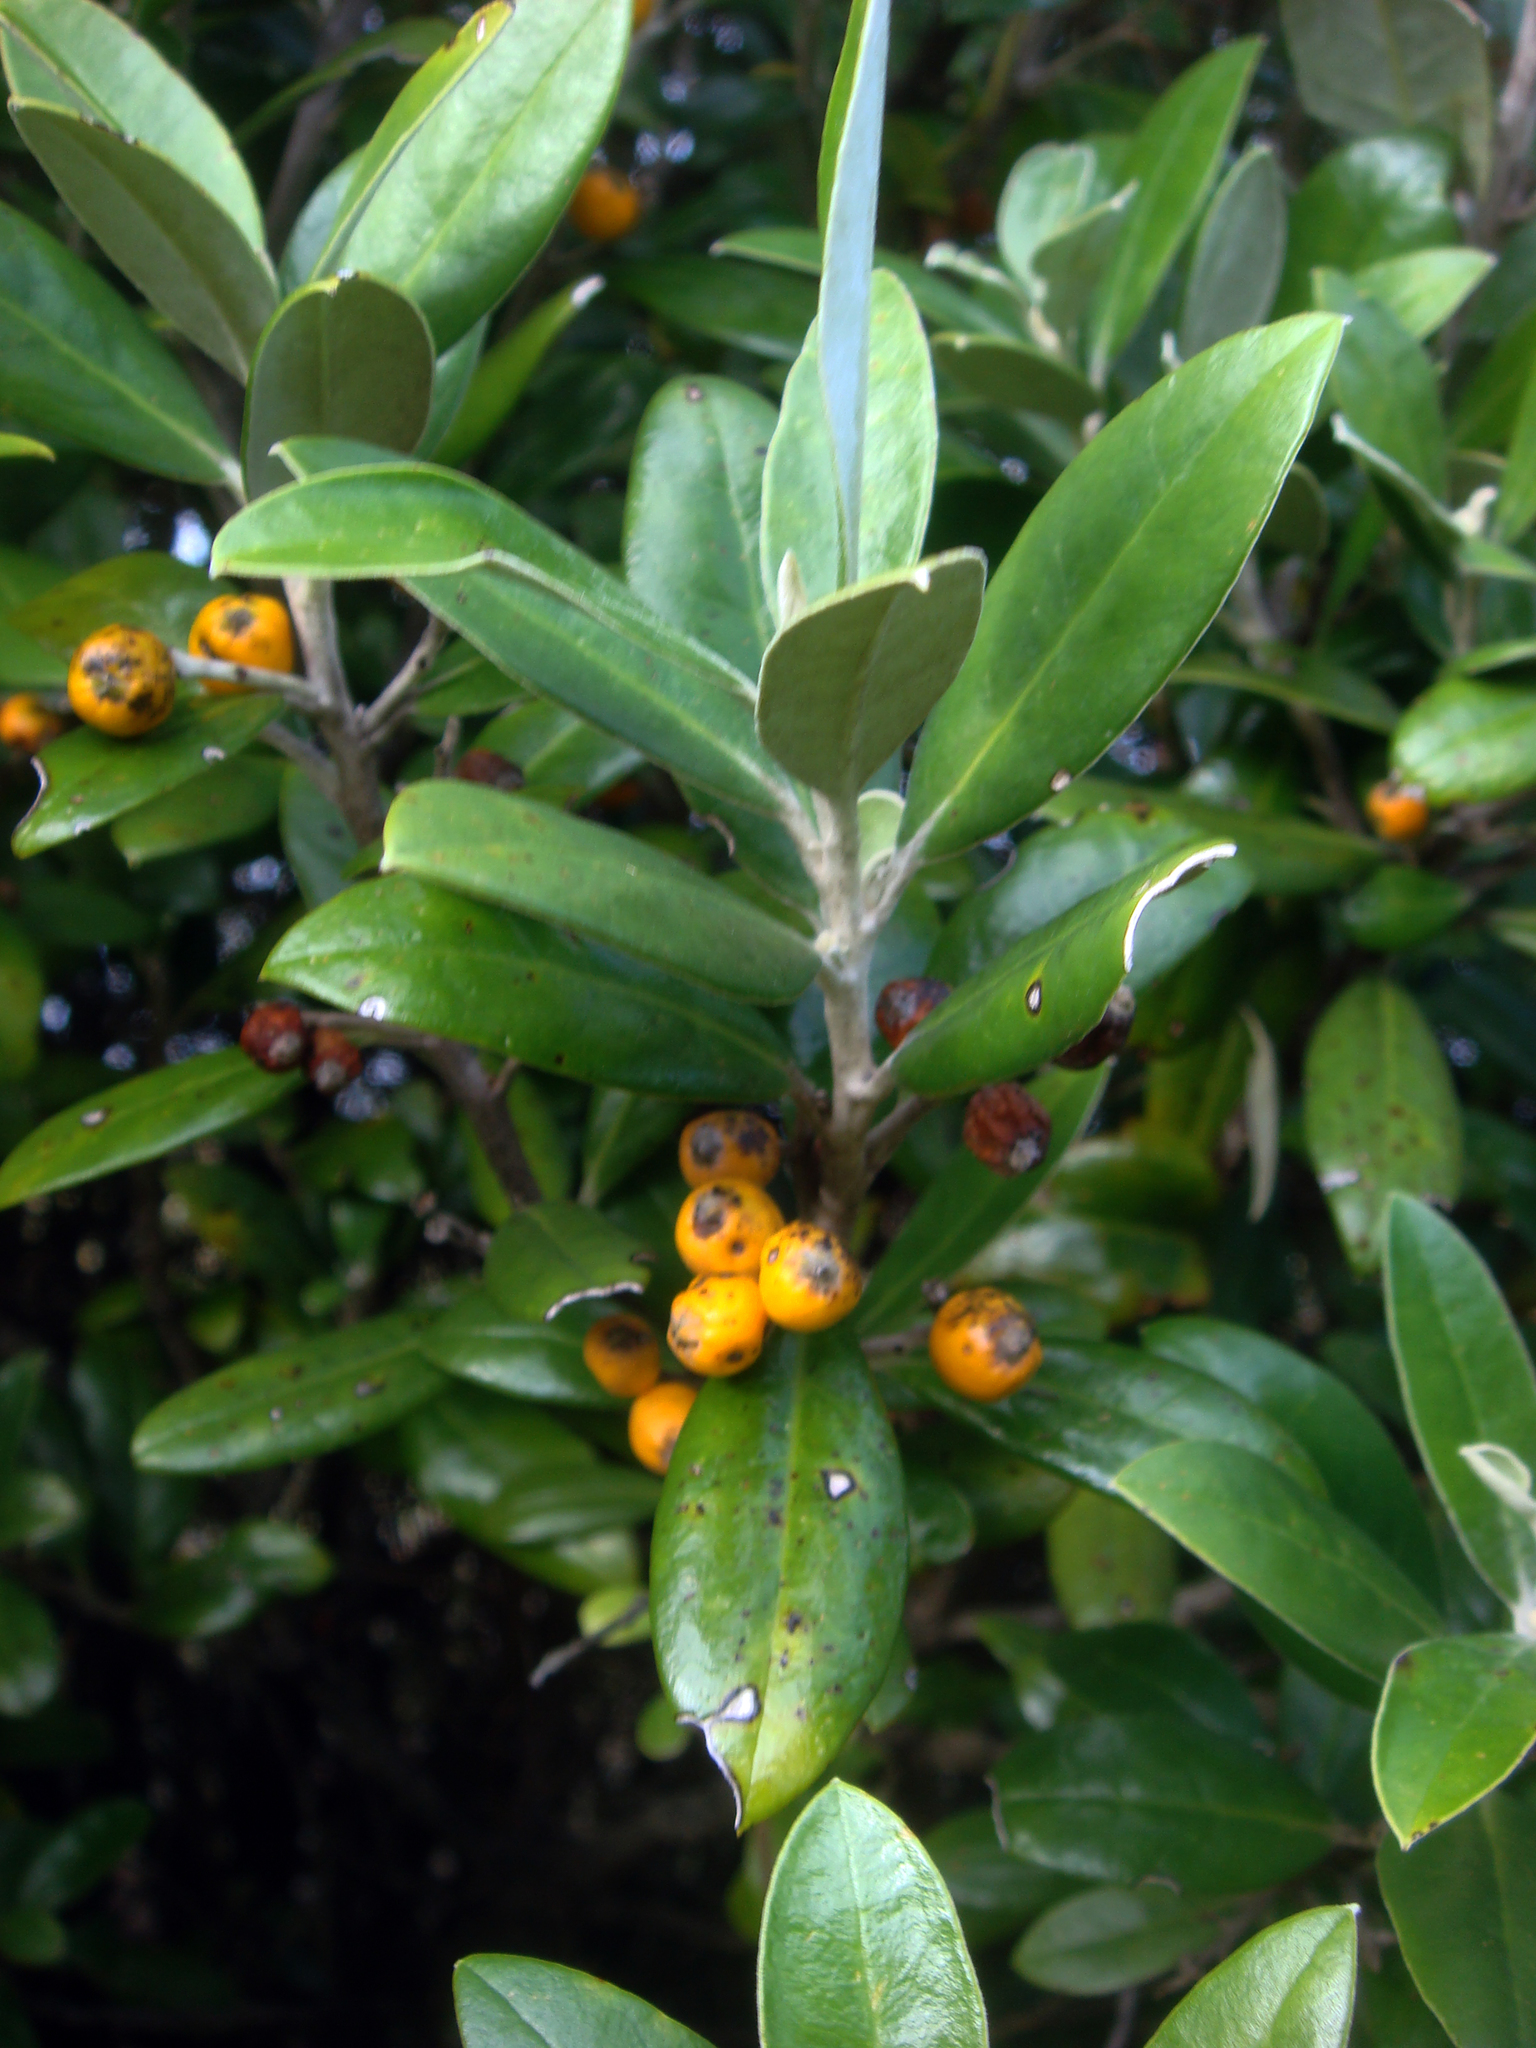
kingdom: Plantae
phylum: Tracheophyta
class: Magnoliopsida
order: Asterales
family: Argophyllaceae
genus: Corokia
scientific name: Corokia macrocarpa
